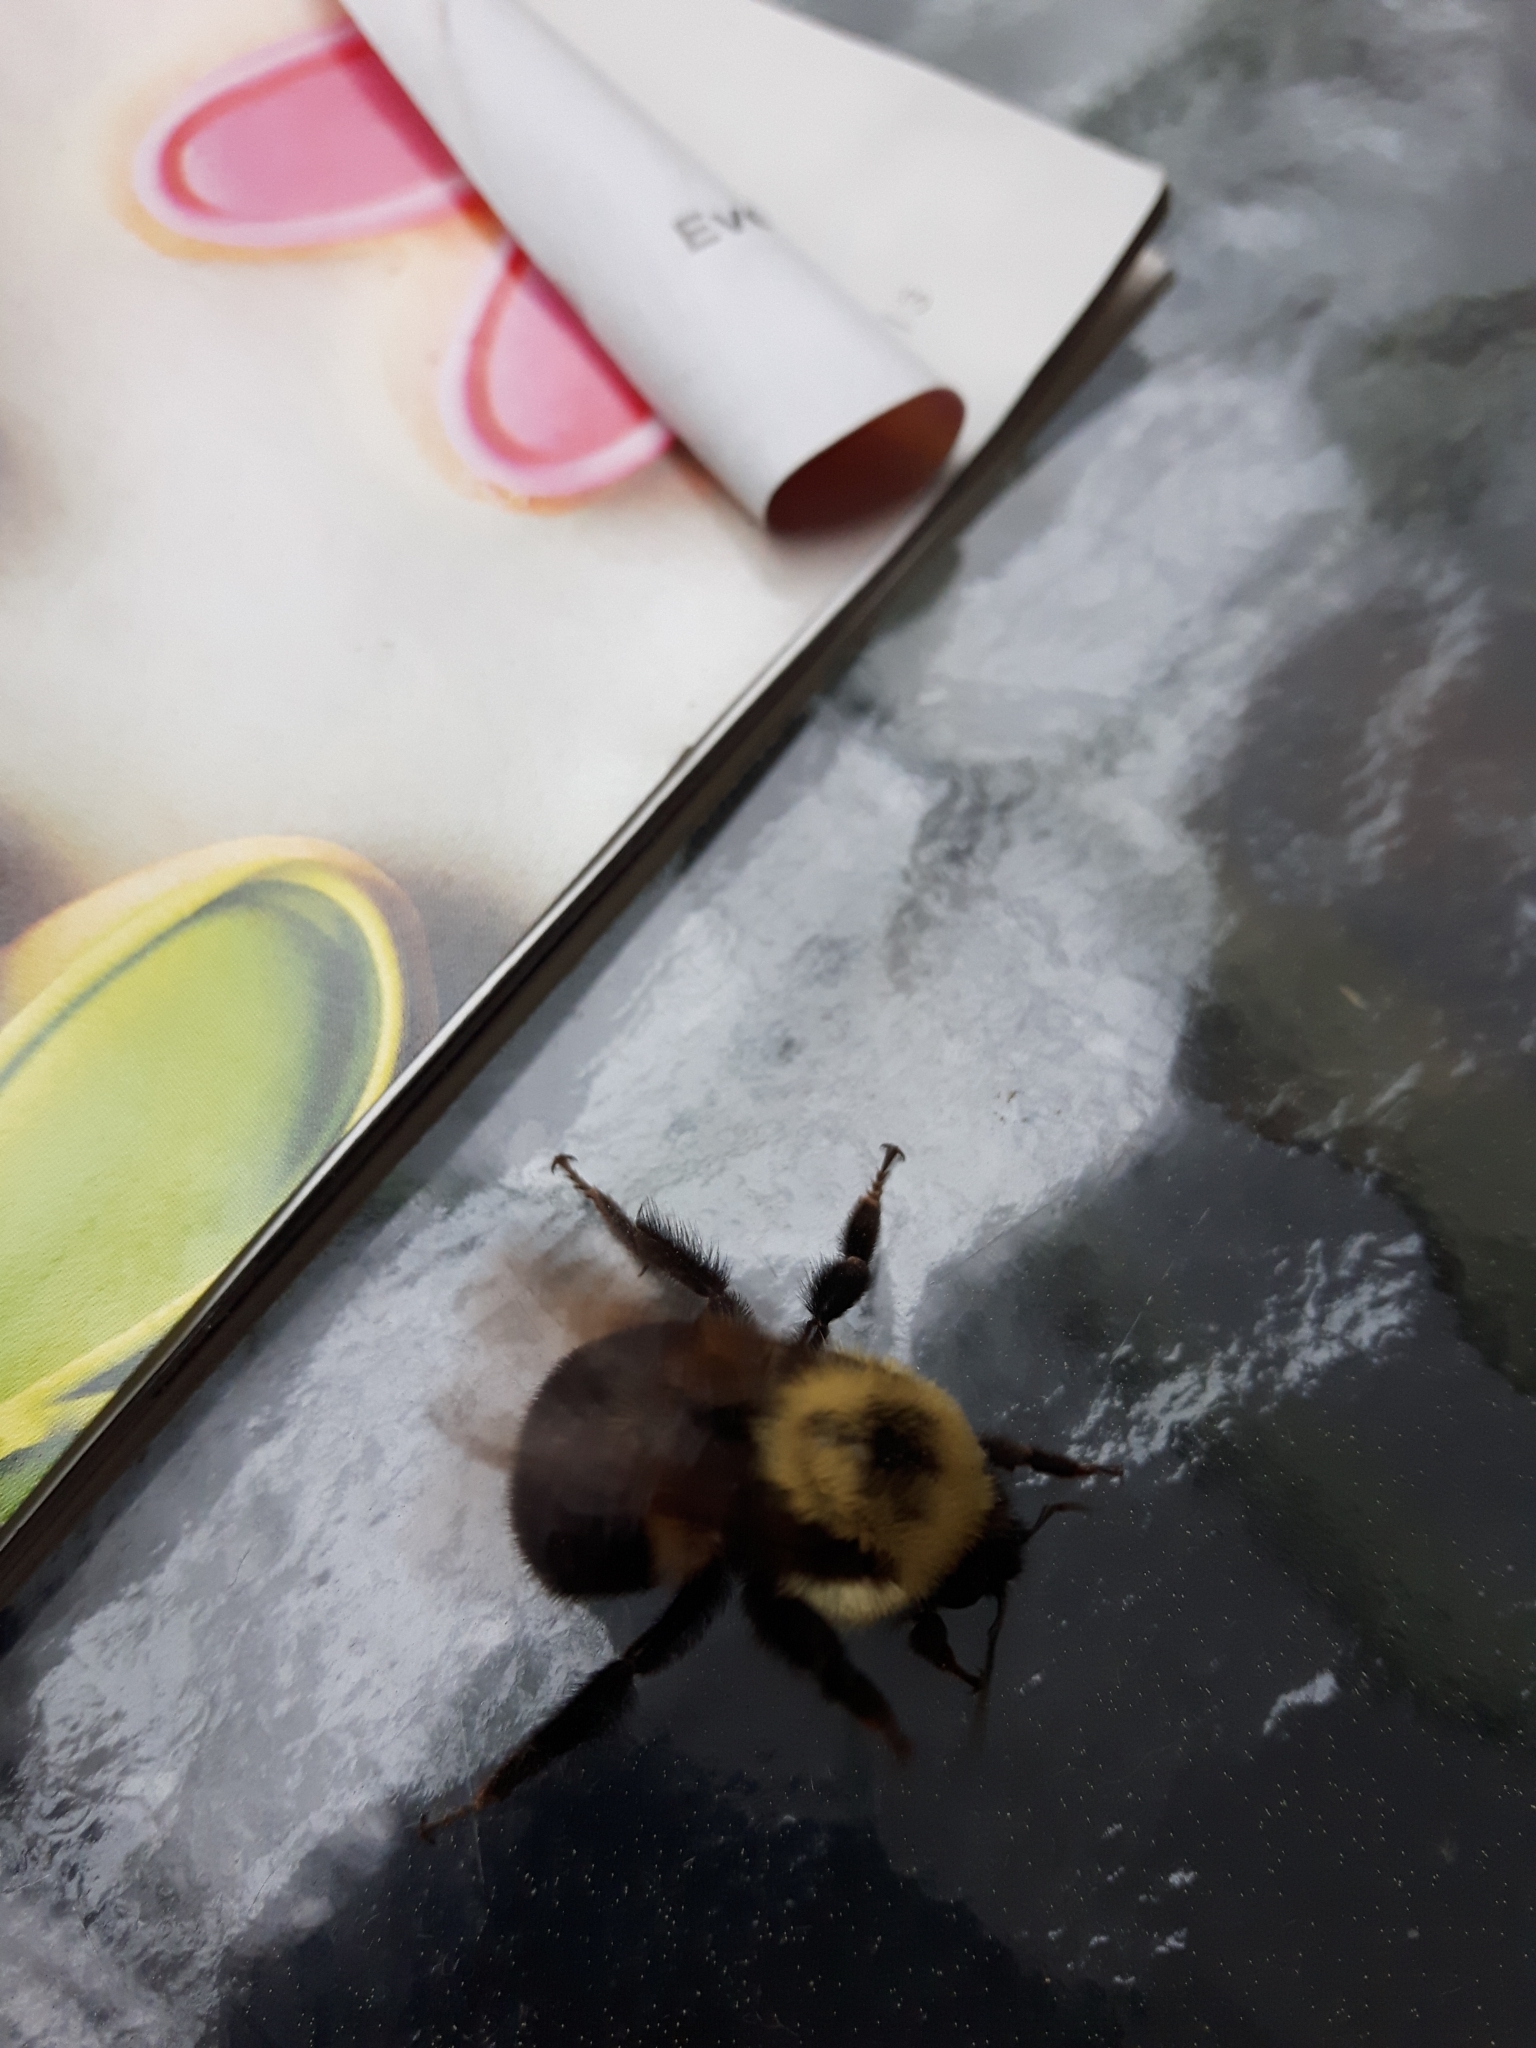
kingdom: Animalia
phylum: Arthropoda
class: Insecta
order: Hymenoptera
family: Apidae
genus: Bombus
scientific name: Bombus bimaculatus
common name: Two-spotted bumble bee
